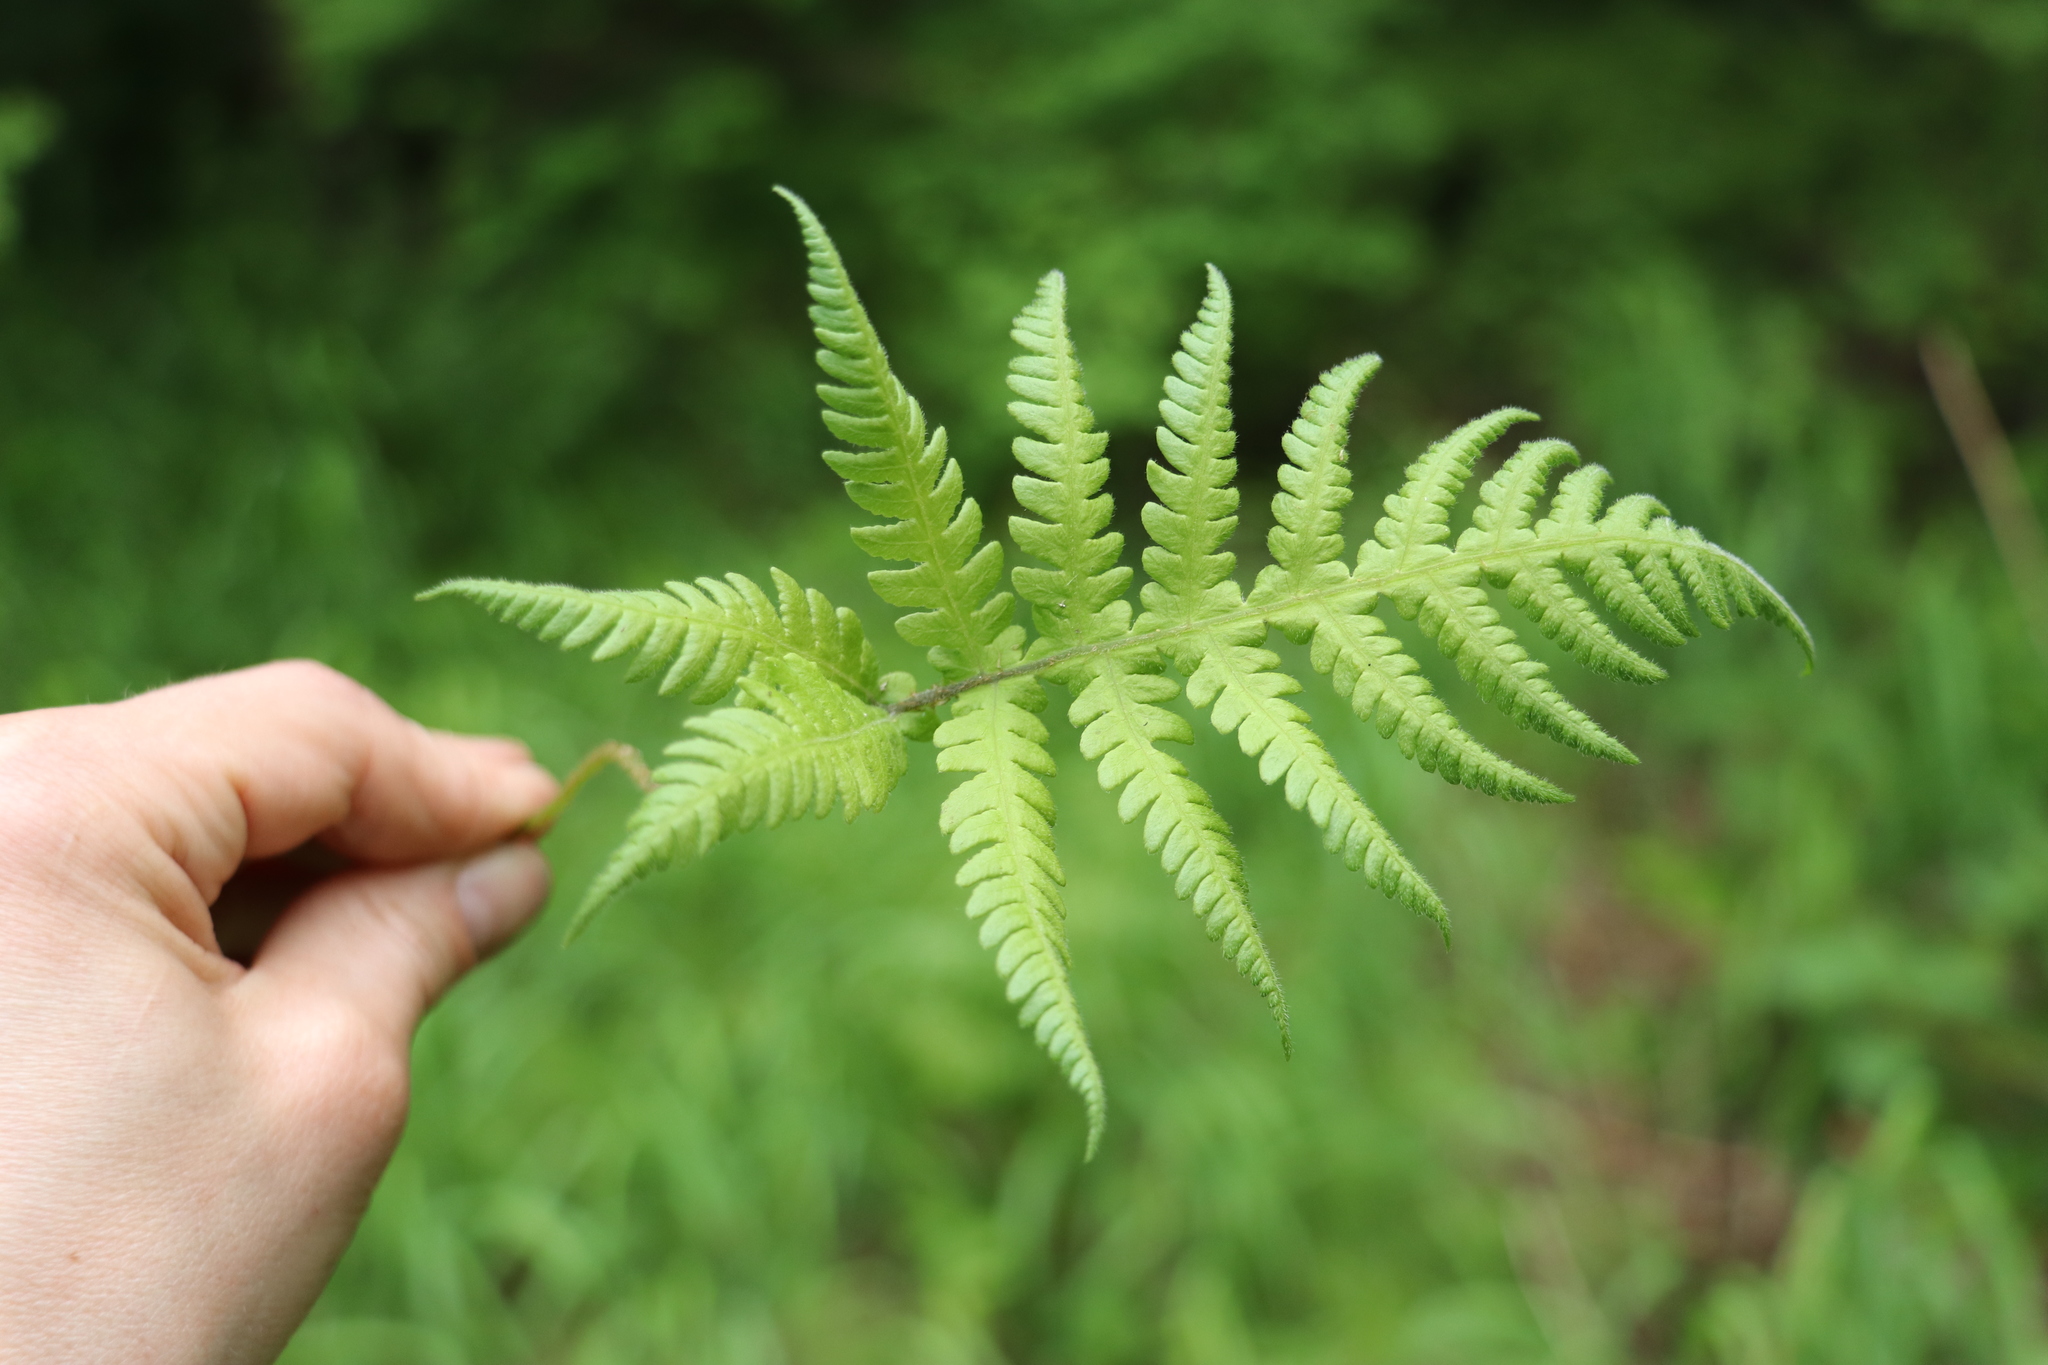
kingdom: Plantae
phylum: Tracheophyta
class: Polypodiopsida
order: Polypodiales
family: Thelypteridaceae
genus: Phegopteris
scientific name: Phegopteris connectilis
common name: Beech fern
